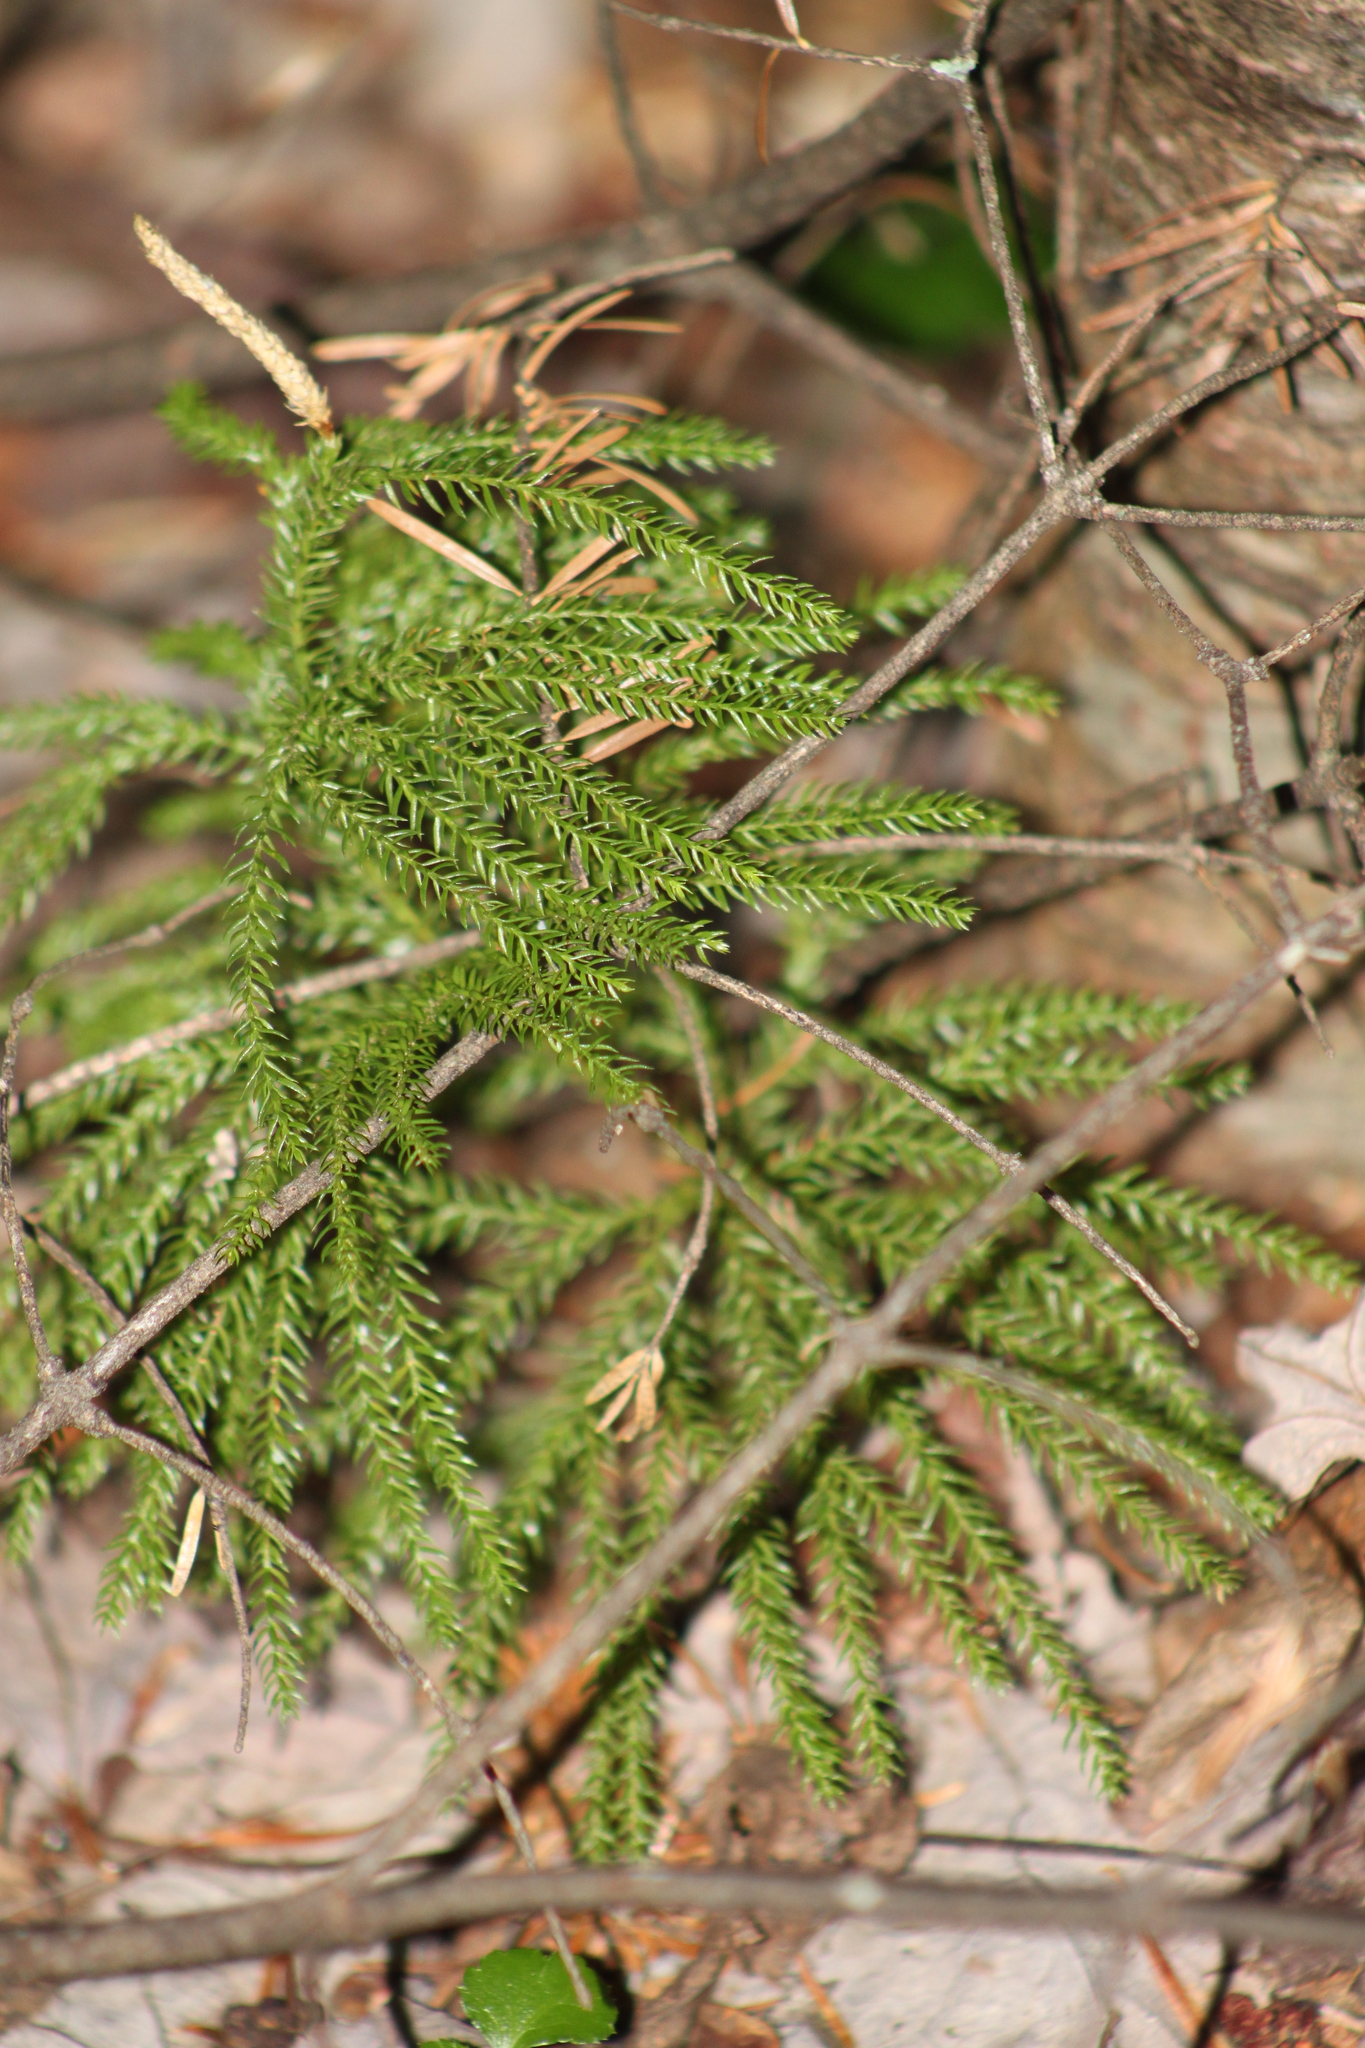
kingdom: Plantae
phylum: Tracheophyta
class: Lycopodiopsida
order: Lycopodiales
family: Lycopodiaceae
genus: Dendrolycopodium
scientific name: Dendrolycopodium dendroideum
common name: Northern tree-clubmoss
